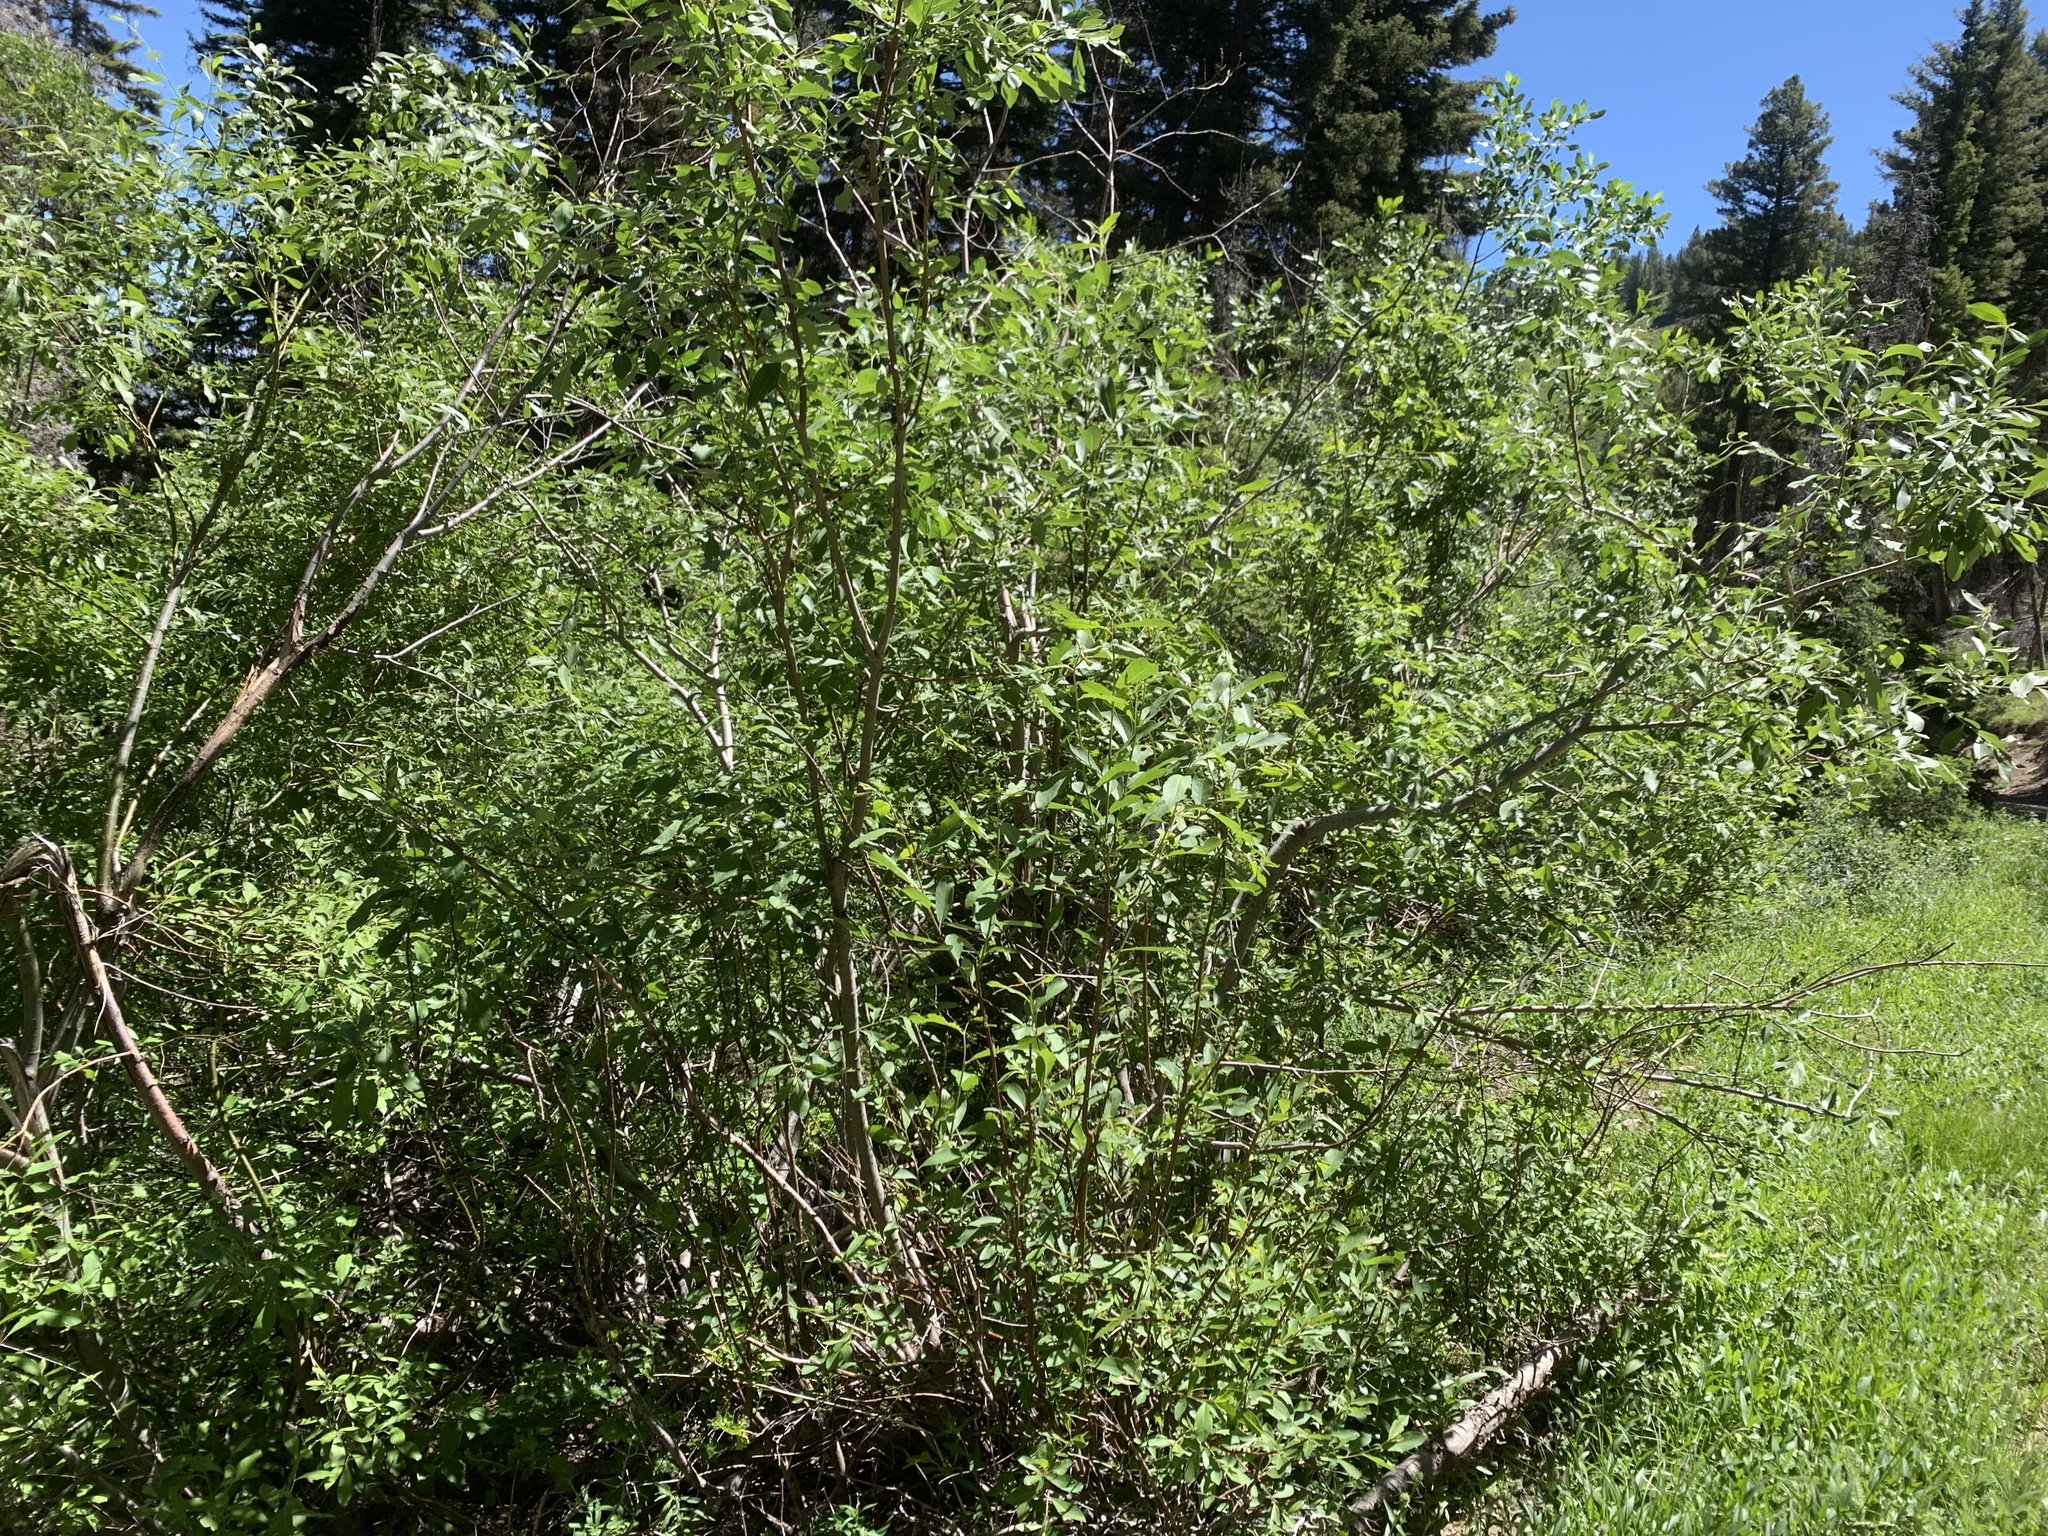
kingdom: Plantae
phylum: Tracheophyta
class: Magnoliopsida
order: Malpighiales
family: Salicaceae
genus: Salix
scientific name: Salix scouleriana
